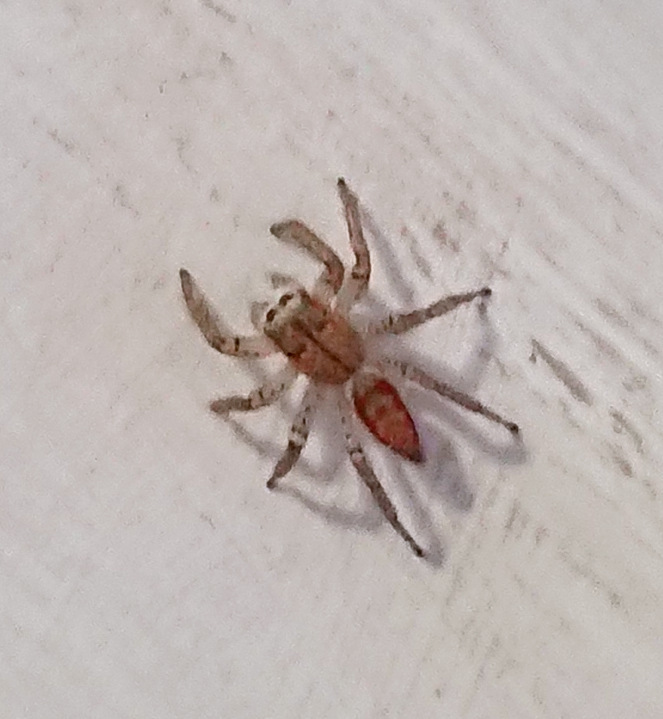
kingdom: Animalia
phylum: Arthropoda
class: Arachnida
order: Araneae
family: Salticidae
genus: Maevia
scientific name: Maevia inclemens
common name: Dimorphic jumper
